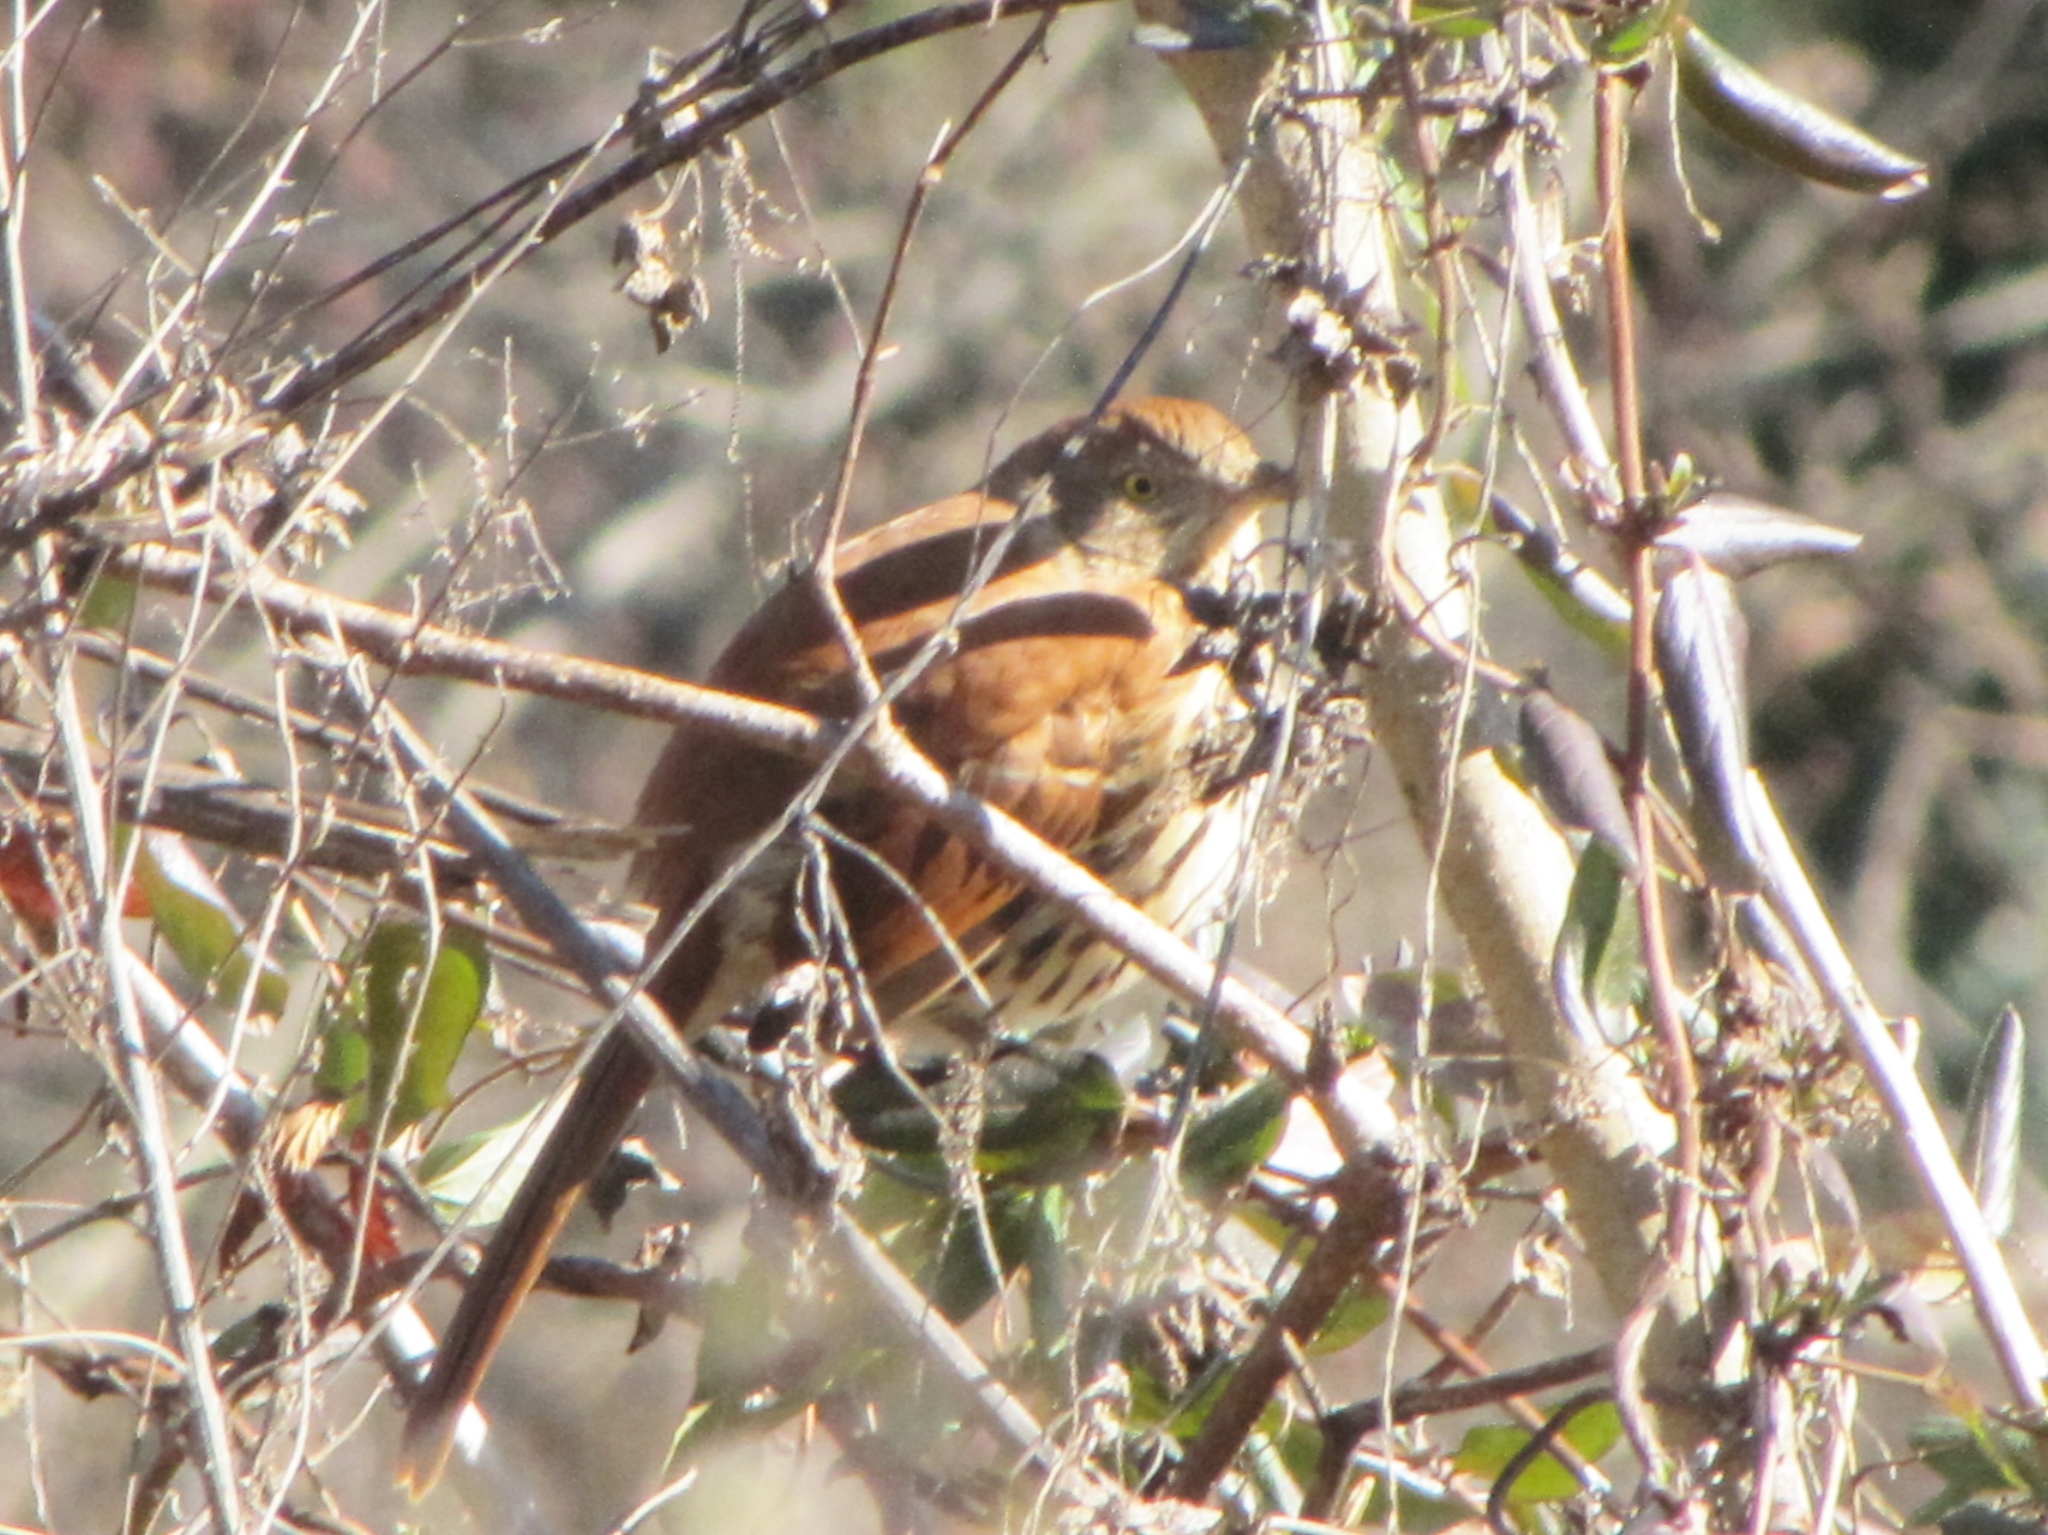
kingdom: Animalia
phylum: Chordata
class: Aves
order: Passeriformes
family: Mimidae
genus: Toxostoma
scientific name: Toxostoma rufum
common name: Brown thrasher
